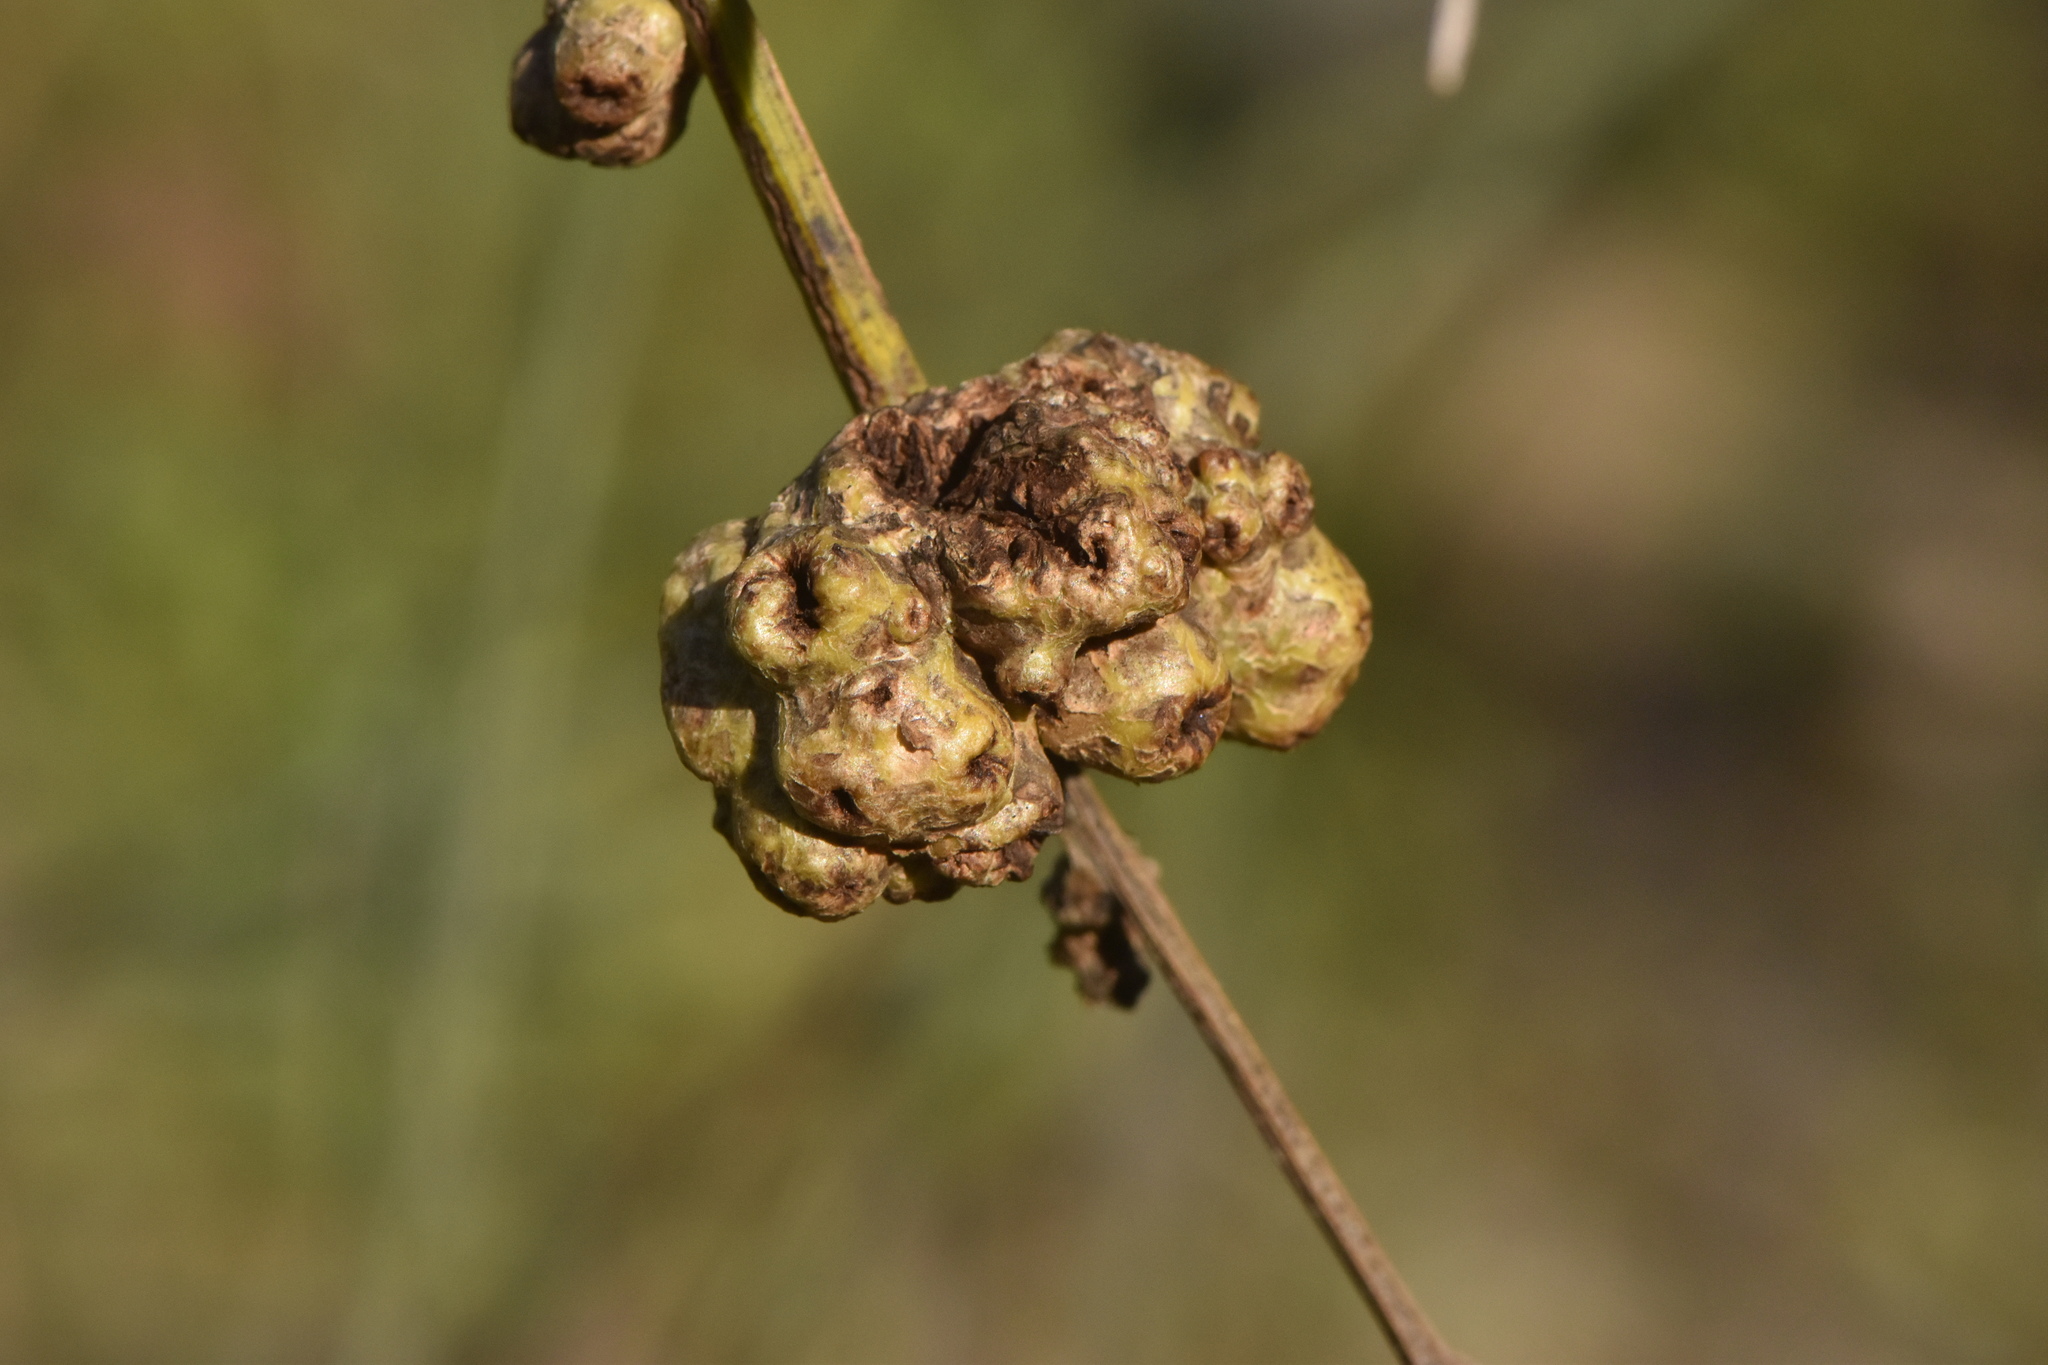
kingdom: Bacteria
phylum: Proteobacteria
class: Gammaproteobacteria
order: Pseudomonadales
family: Pseudomonadaceae
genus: Pseudomonas
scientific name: Pseudomonas
